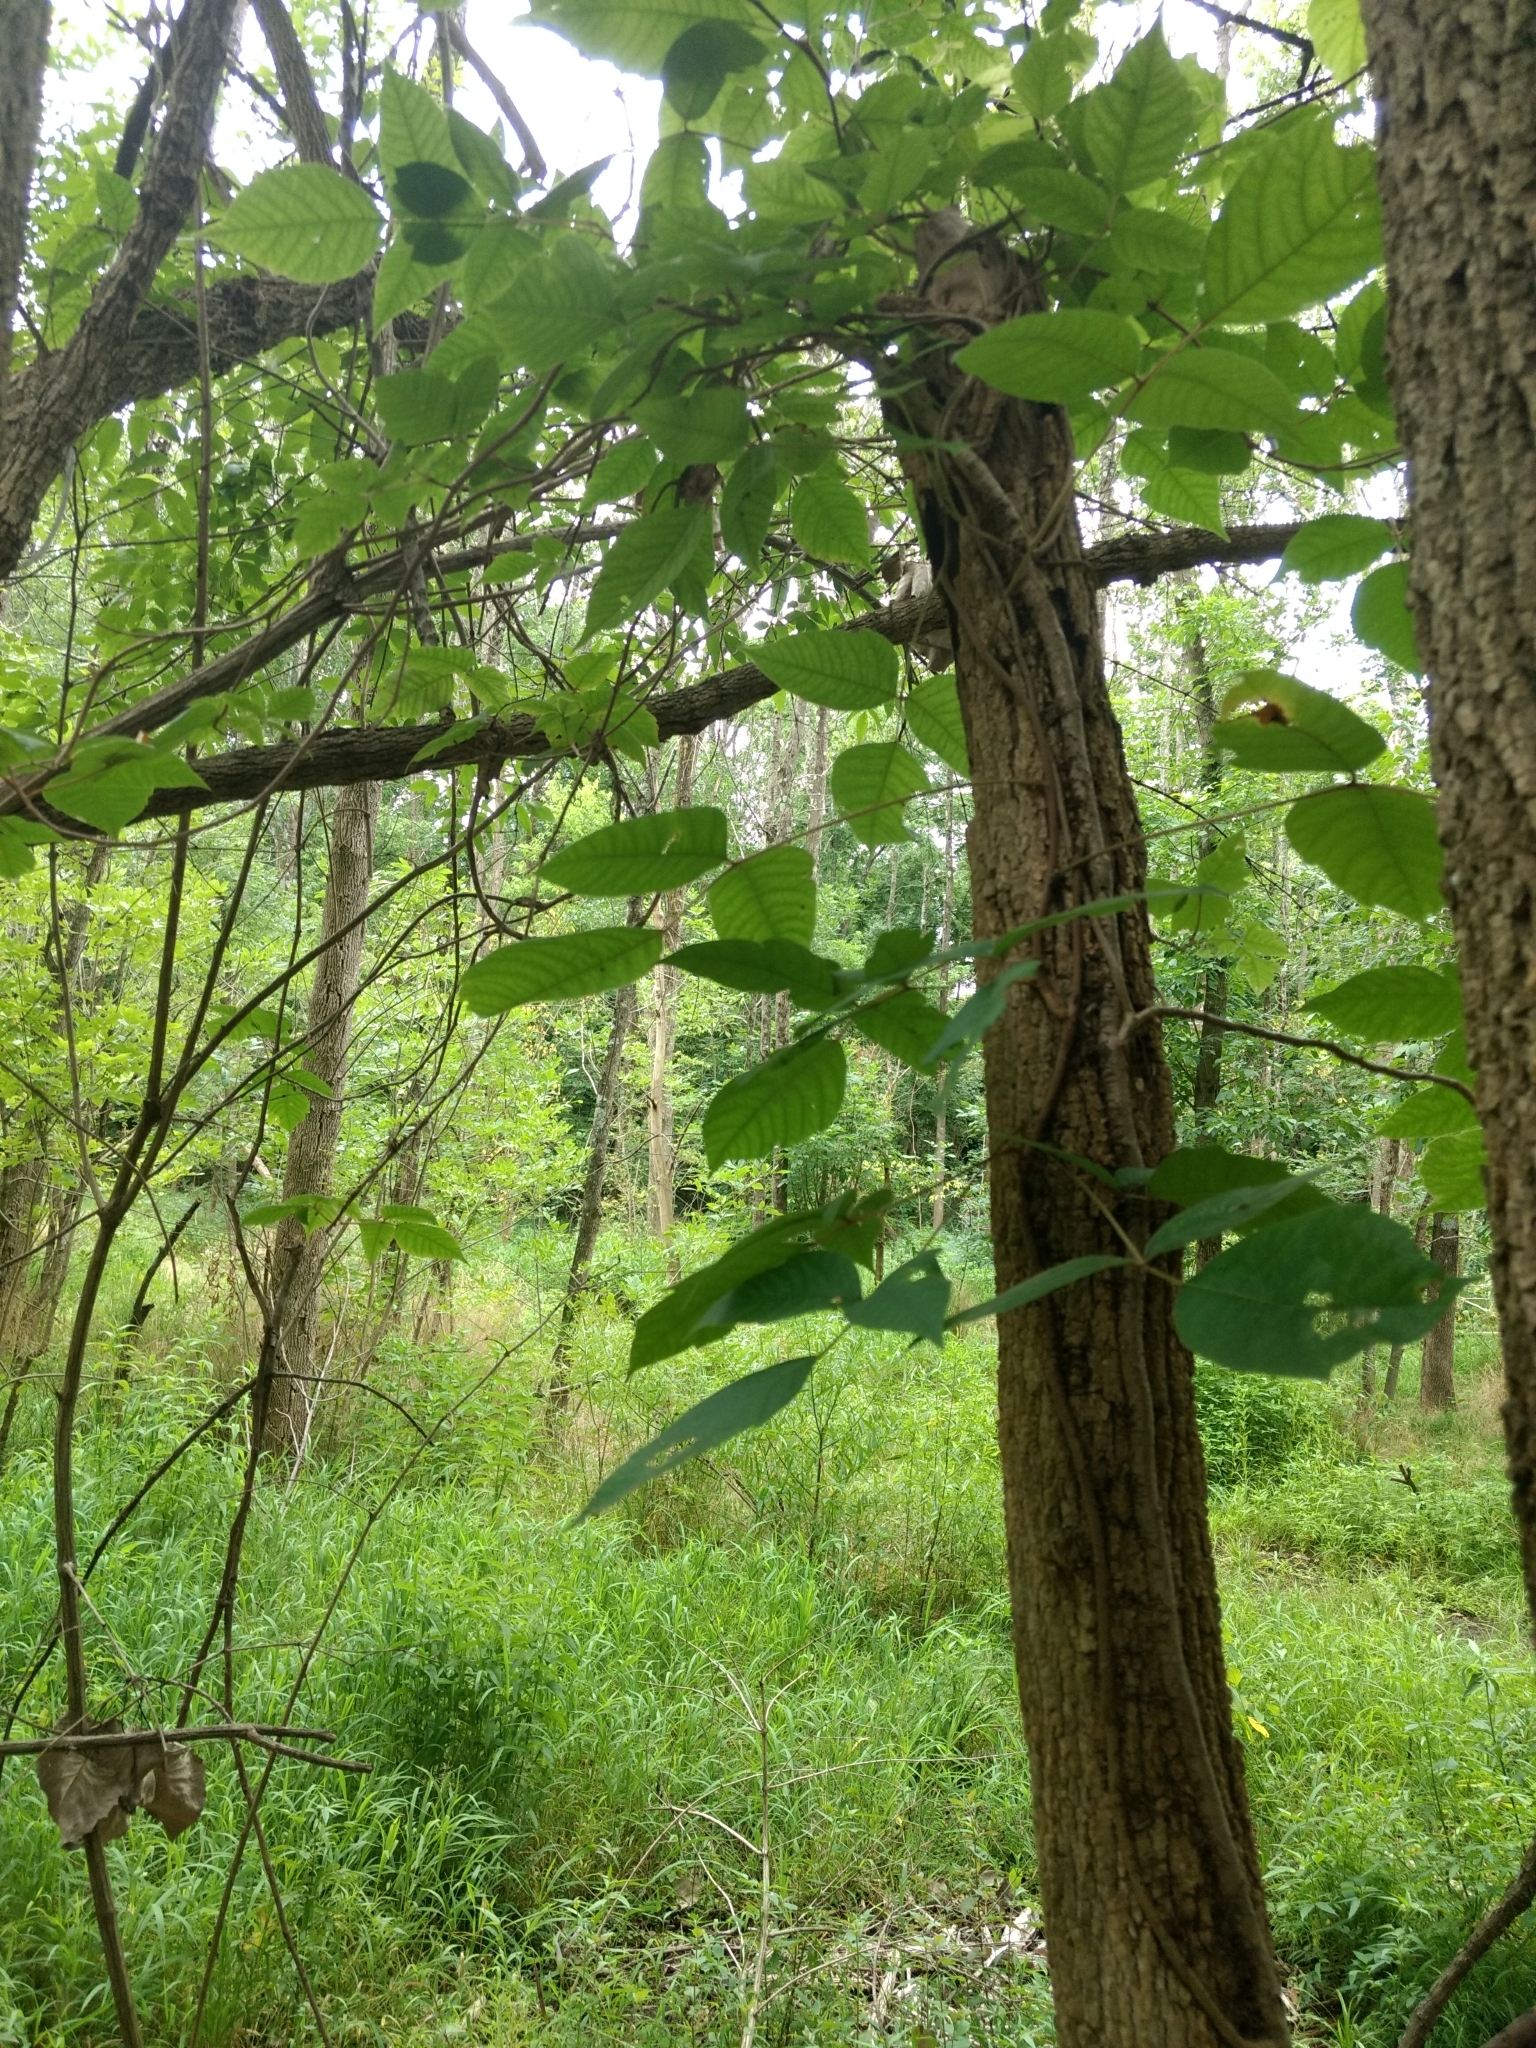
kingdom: Plantae
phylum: Tracheophyta
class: Magnoliopsida
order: Sapindales
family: Anacardiaceae
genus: Toxicodendron
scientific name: Toxicodendron radicans
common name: Poison ivy
